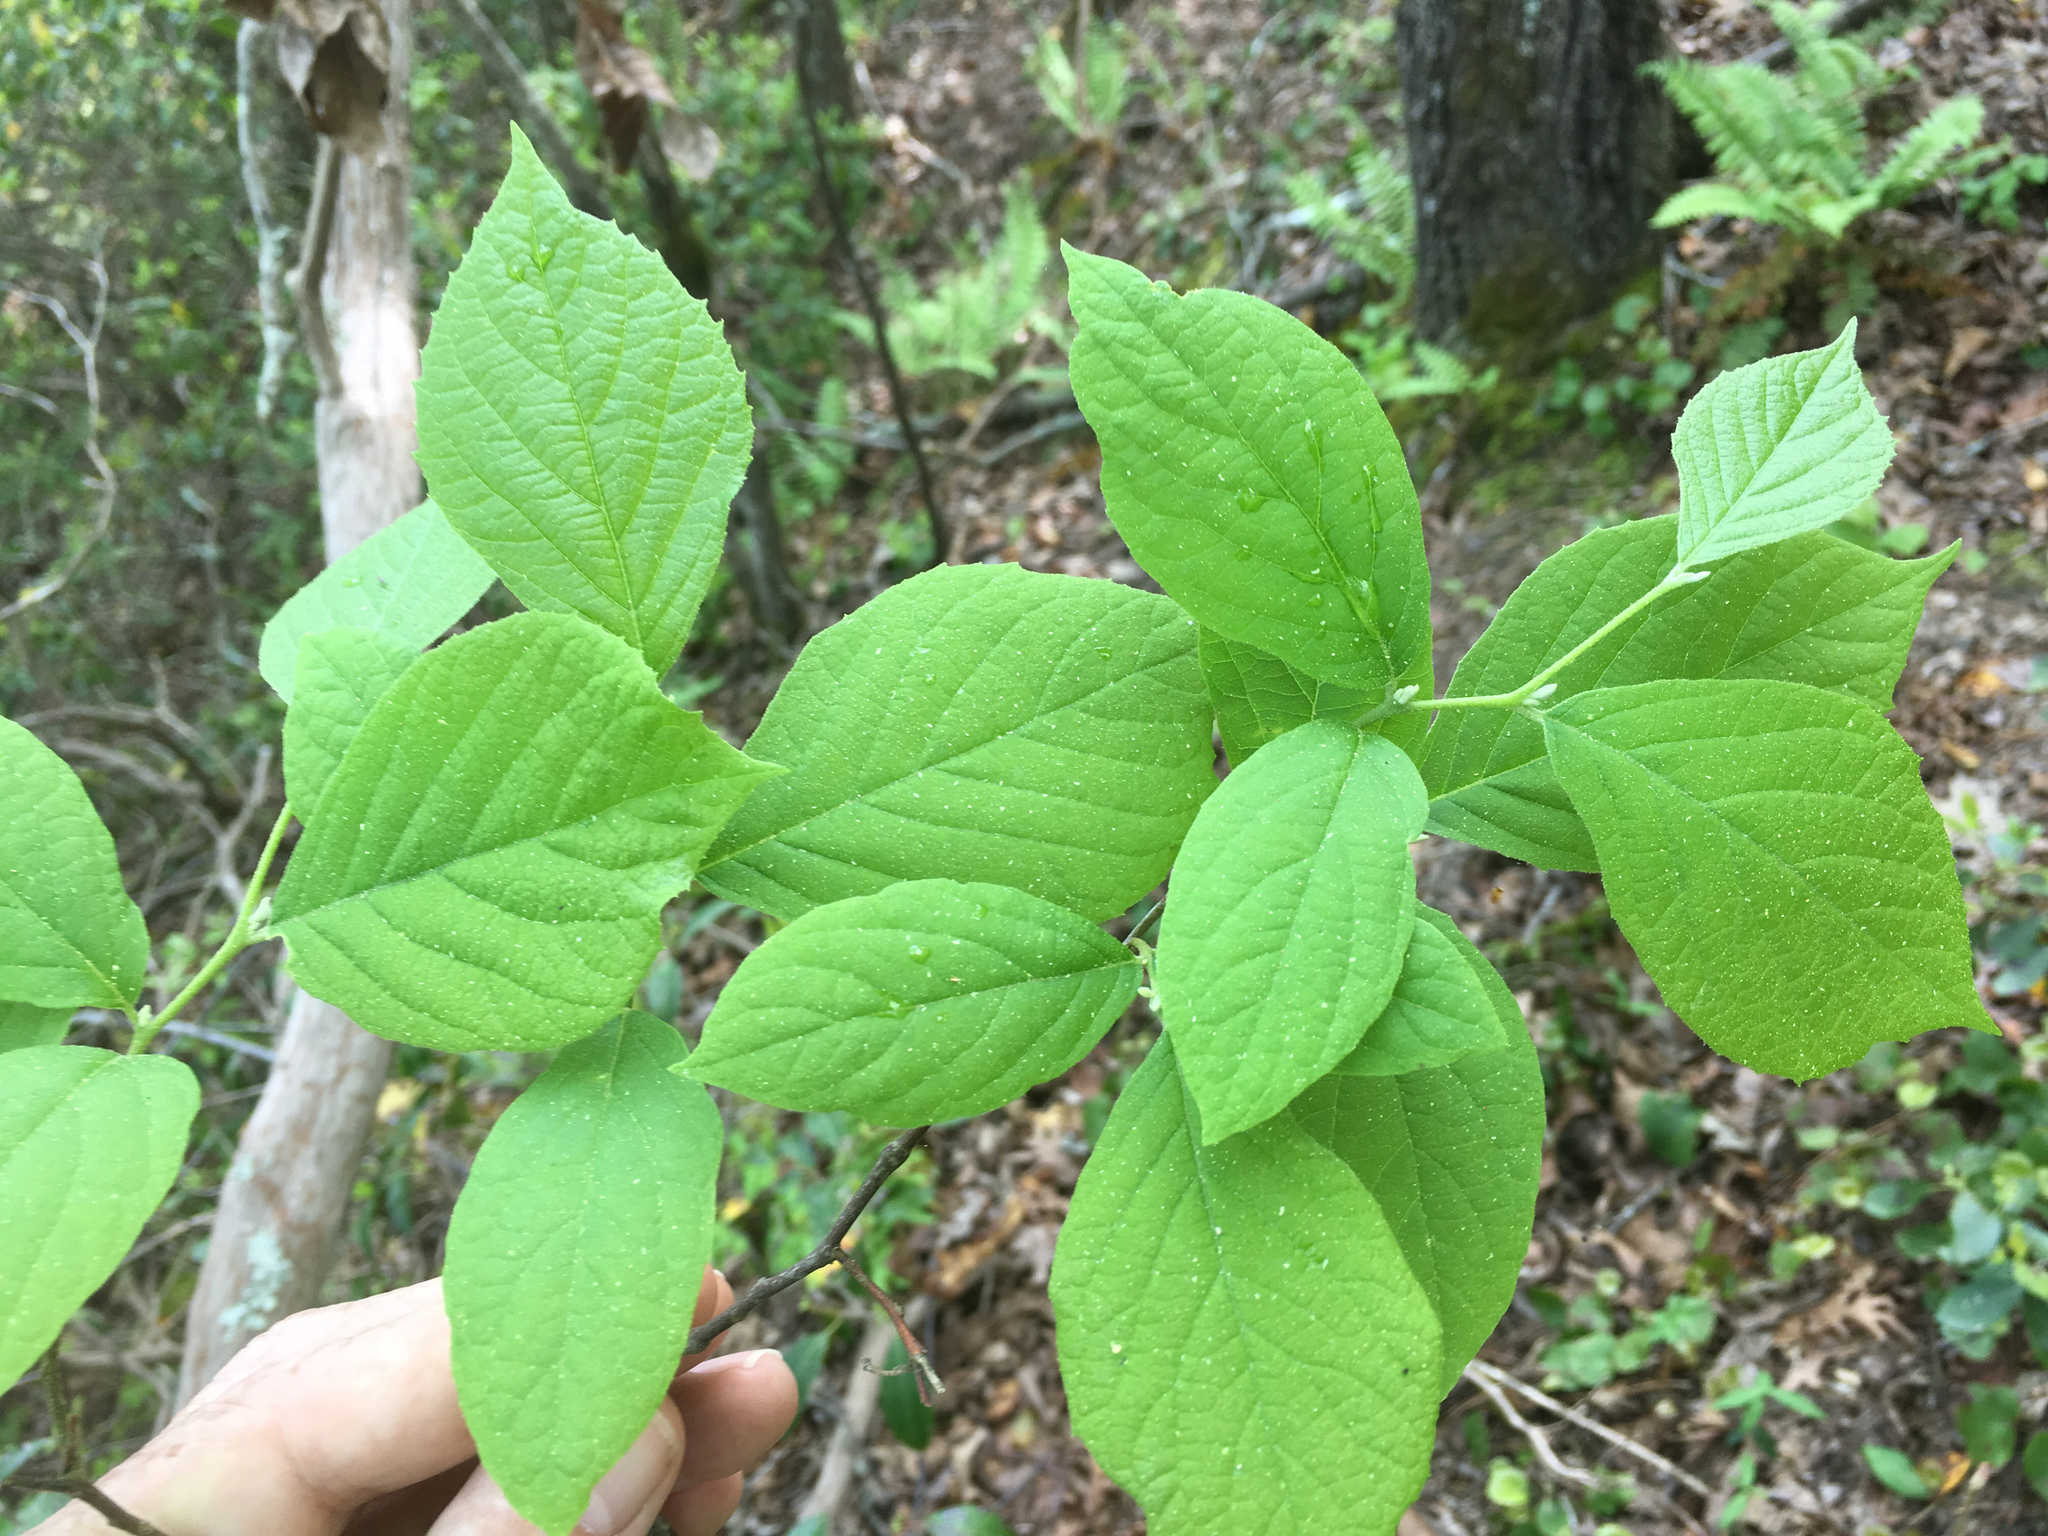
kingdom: Plantae
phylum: Tracheophyta
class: Magnoliopsida
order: Ericales
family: Styracaceae
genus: Styrax
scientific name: Styrax grandifolius
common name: Big-leaf snowbell
